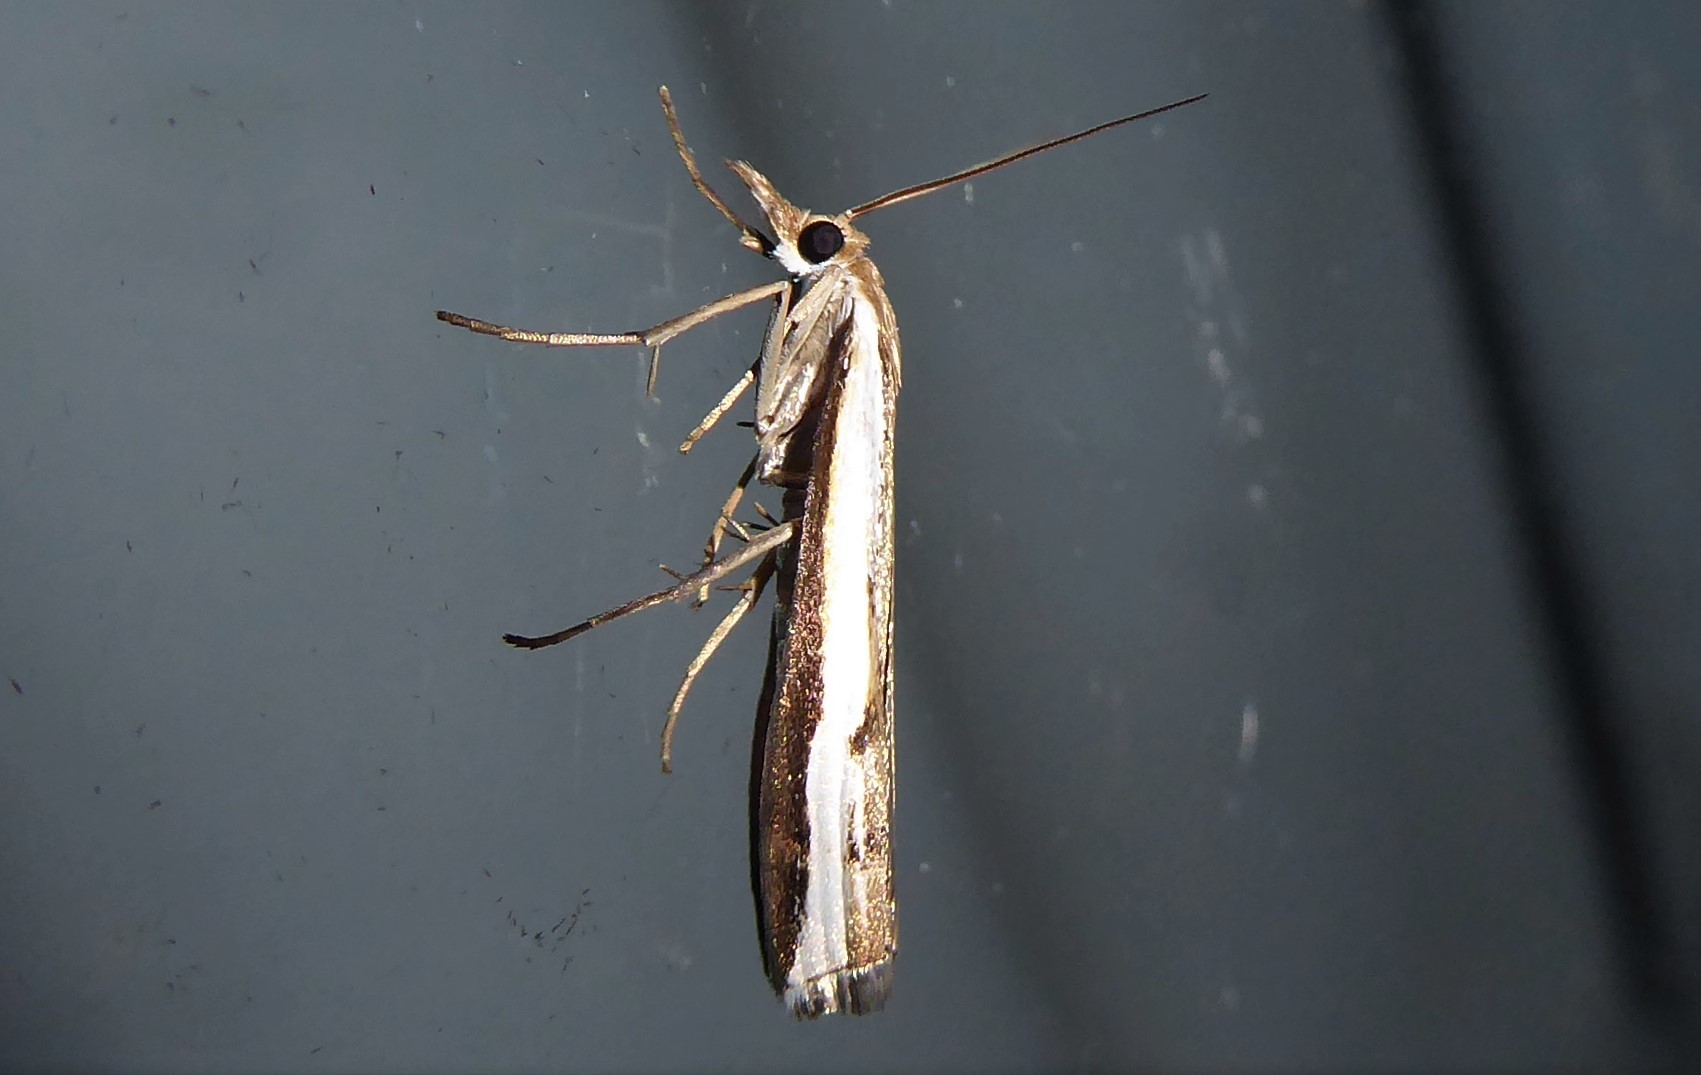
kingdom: Animalia
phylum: Arthropoda
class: Insecta
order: Lepidoptera
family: Crambidae
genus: Orocrambus
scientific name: Orocrambus flexuosellus
